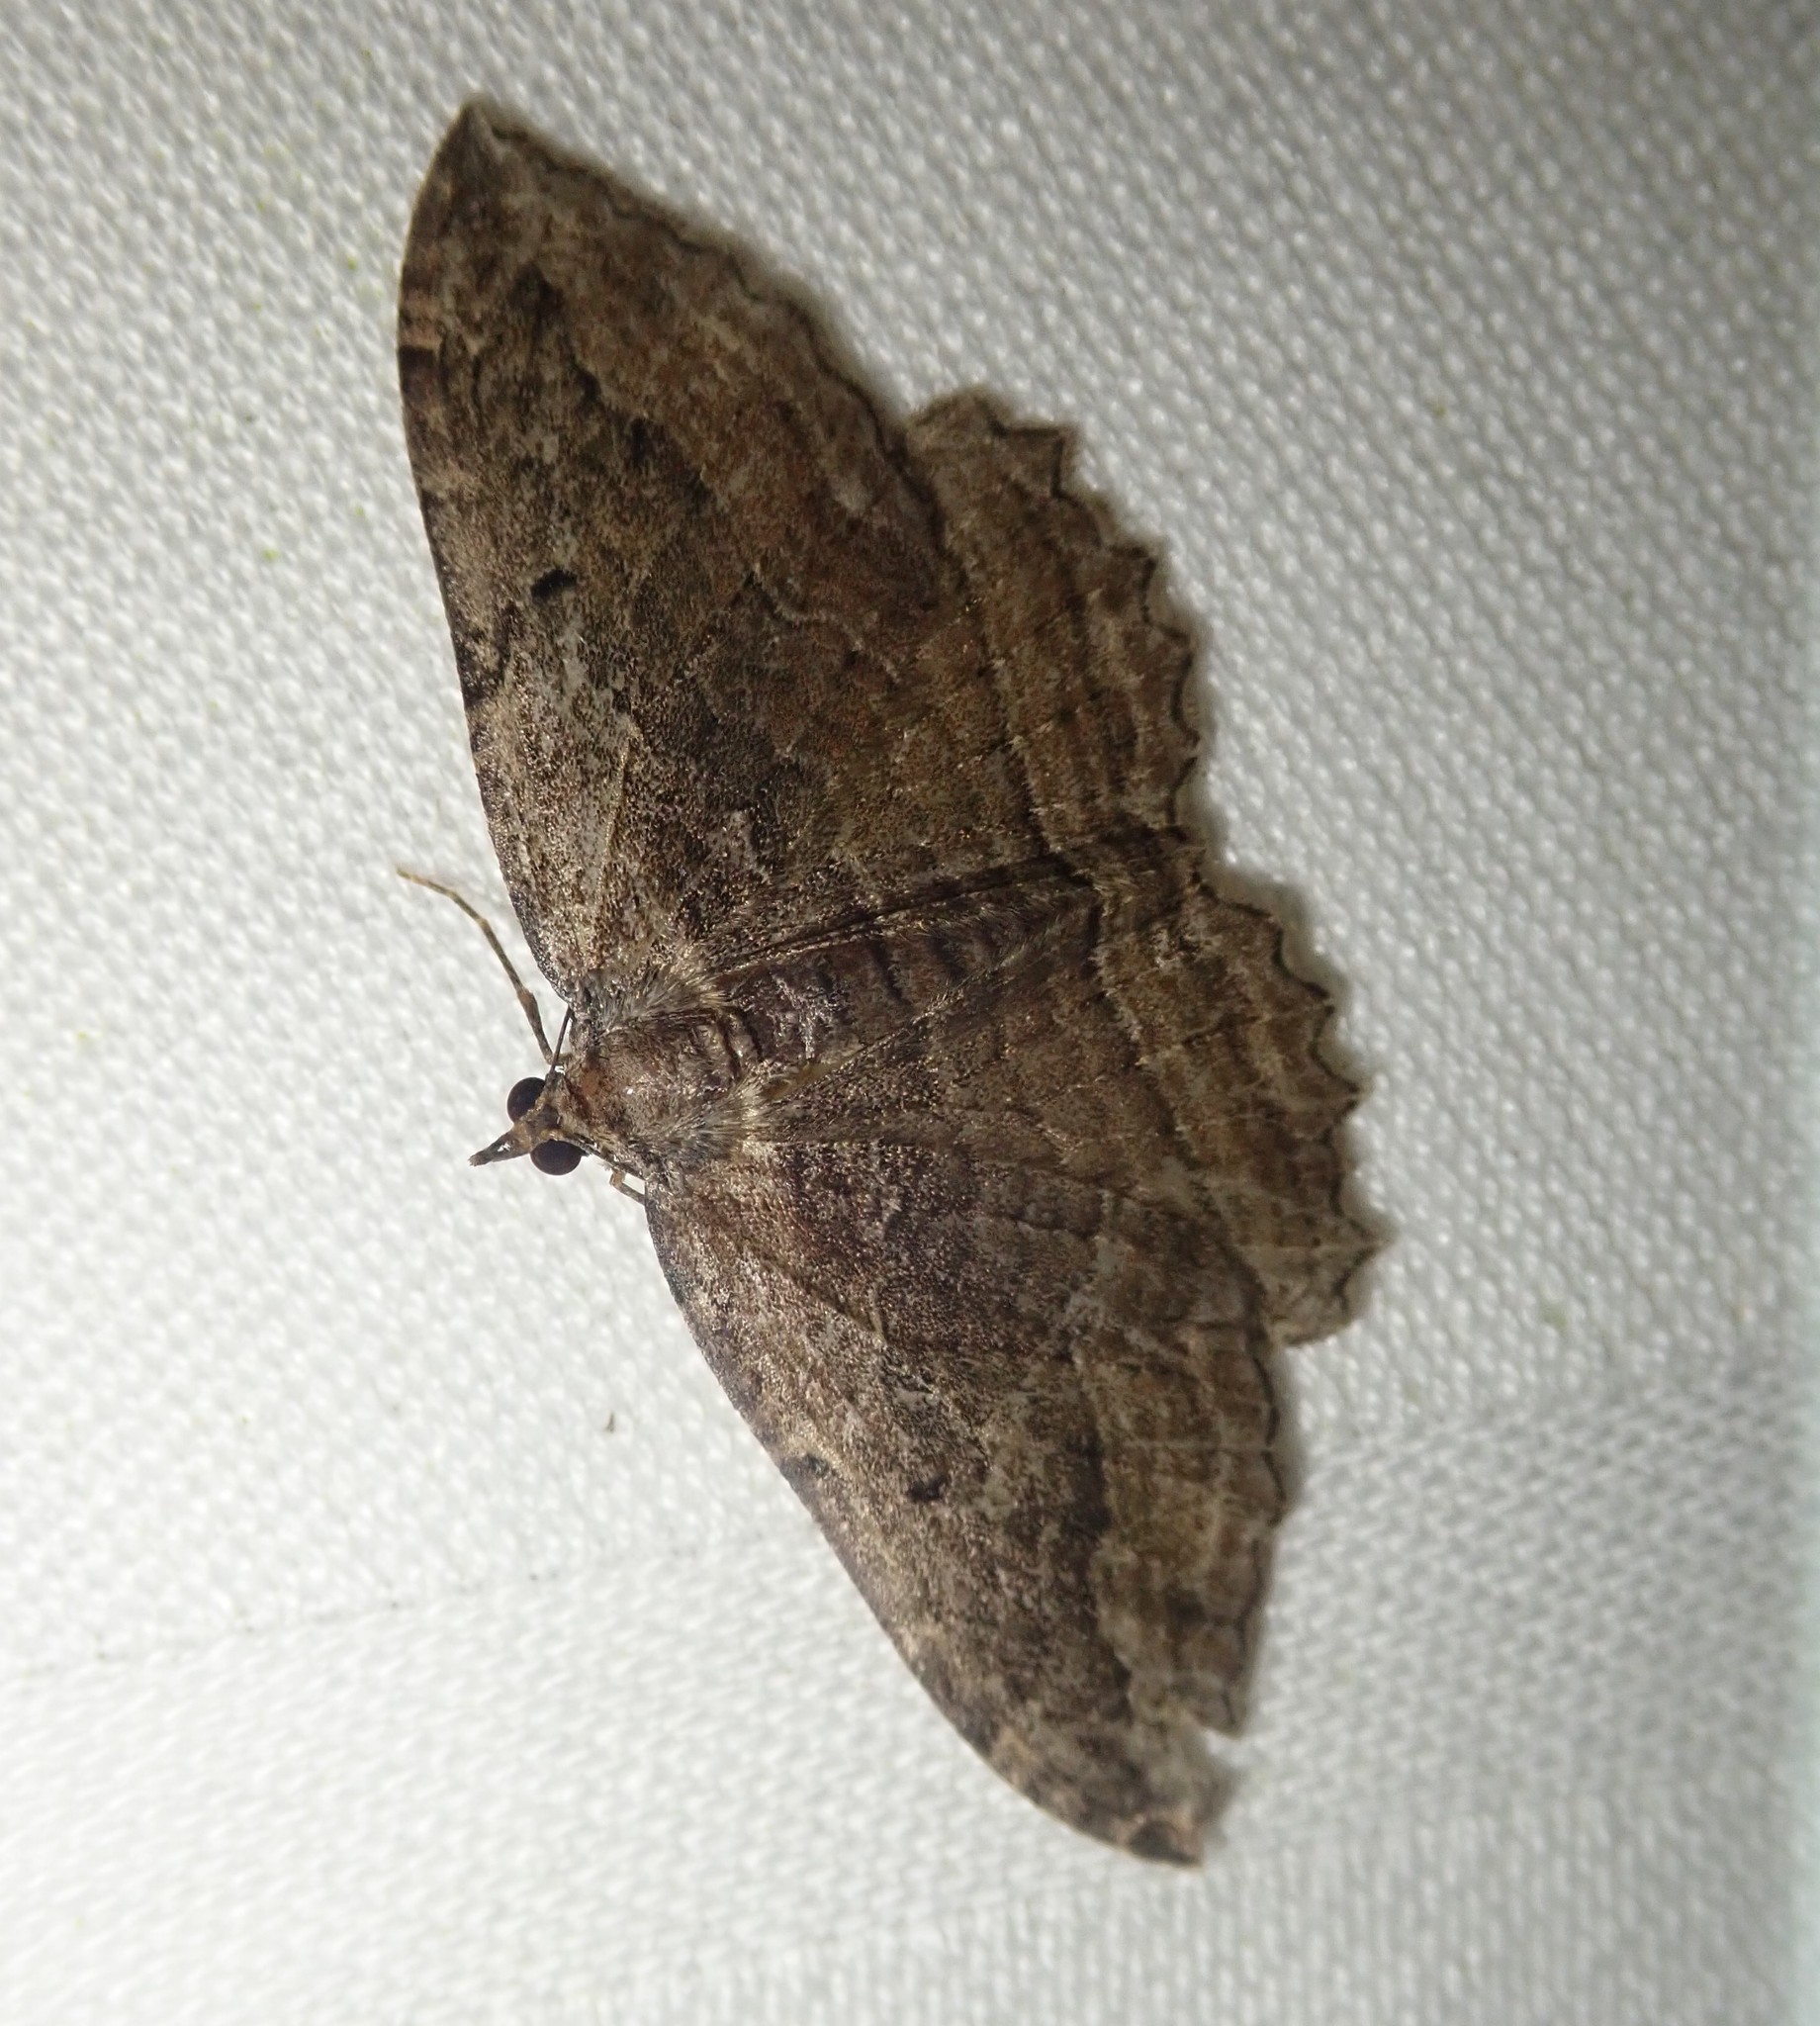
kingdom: Animalia
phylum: Arthropoda
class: Insecta
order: Lepidoptera
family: Geometridae
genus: Philereme
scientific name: Philereme transversata
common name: Dark umber
